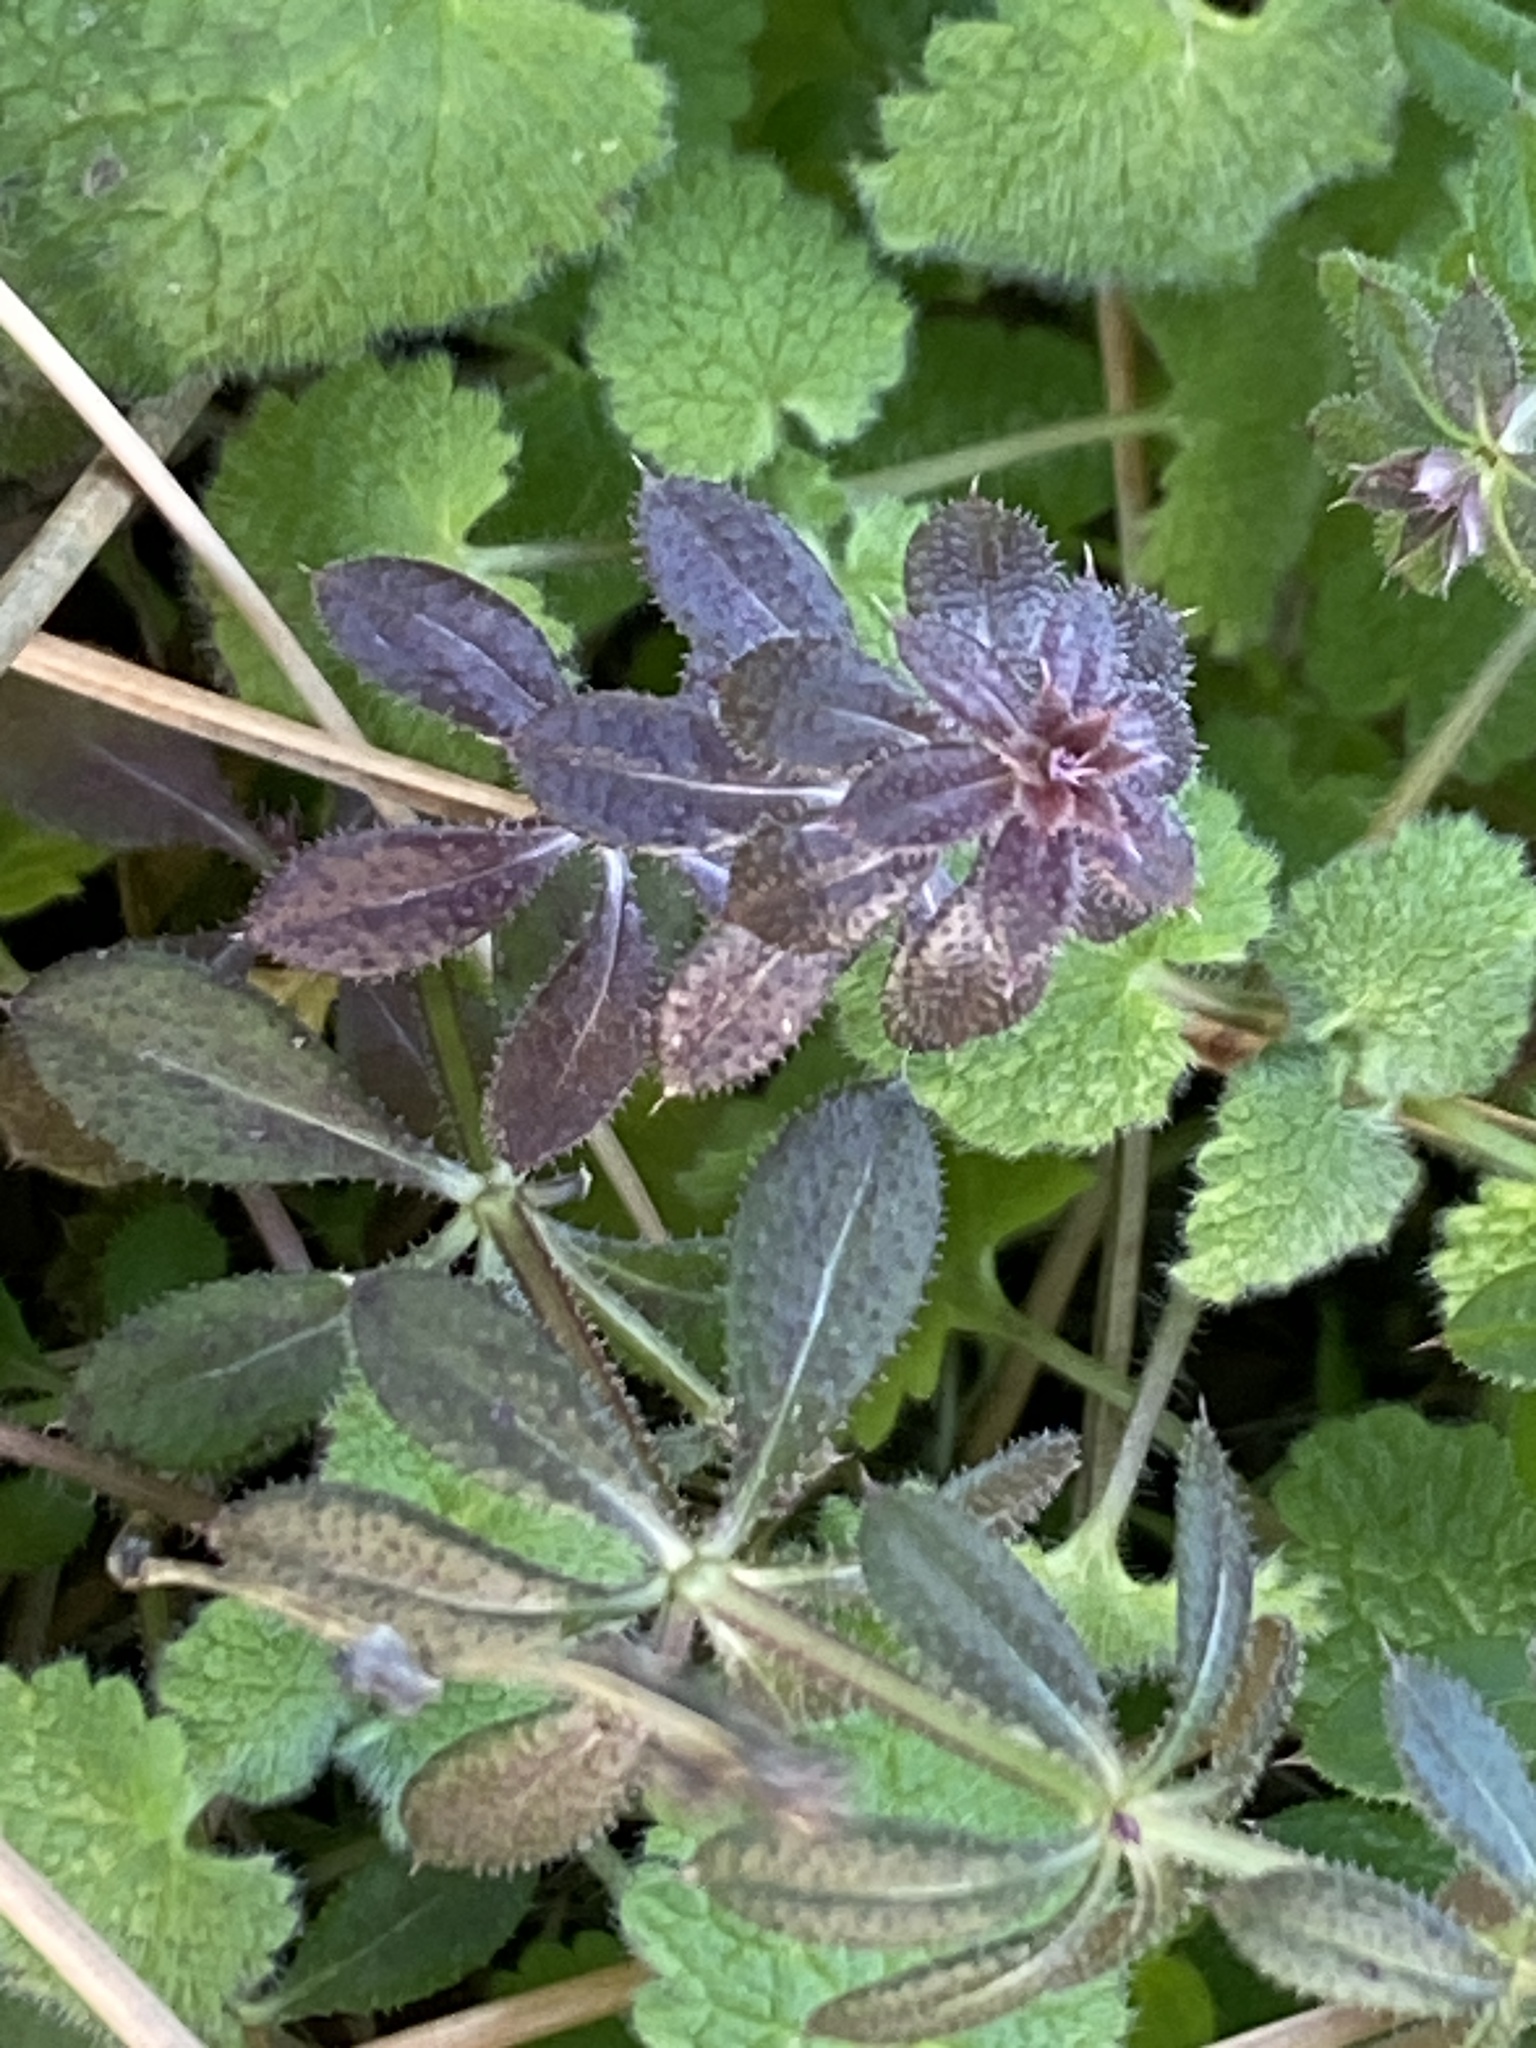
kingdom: Plantae
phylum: Tracheophyta
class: Magnoliopsida
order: Gentianales
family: Rubiaceae
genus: Galium
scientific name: Galium aparine
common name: Cleavers
